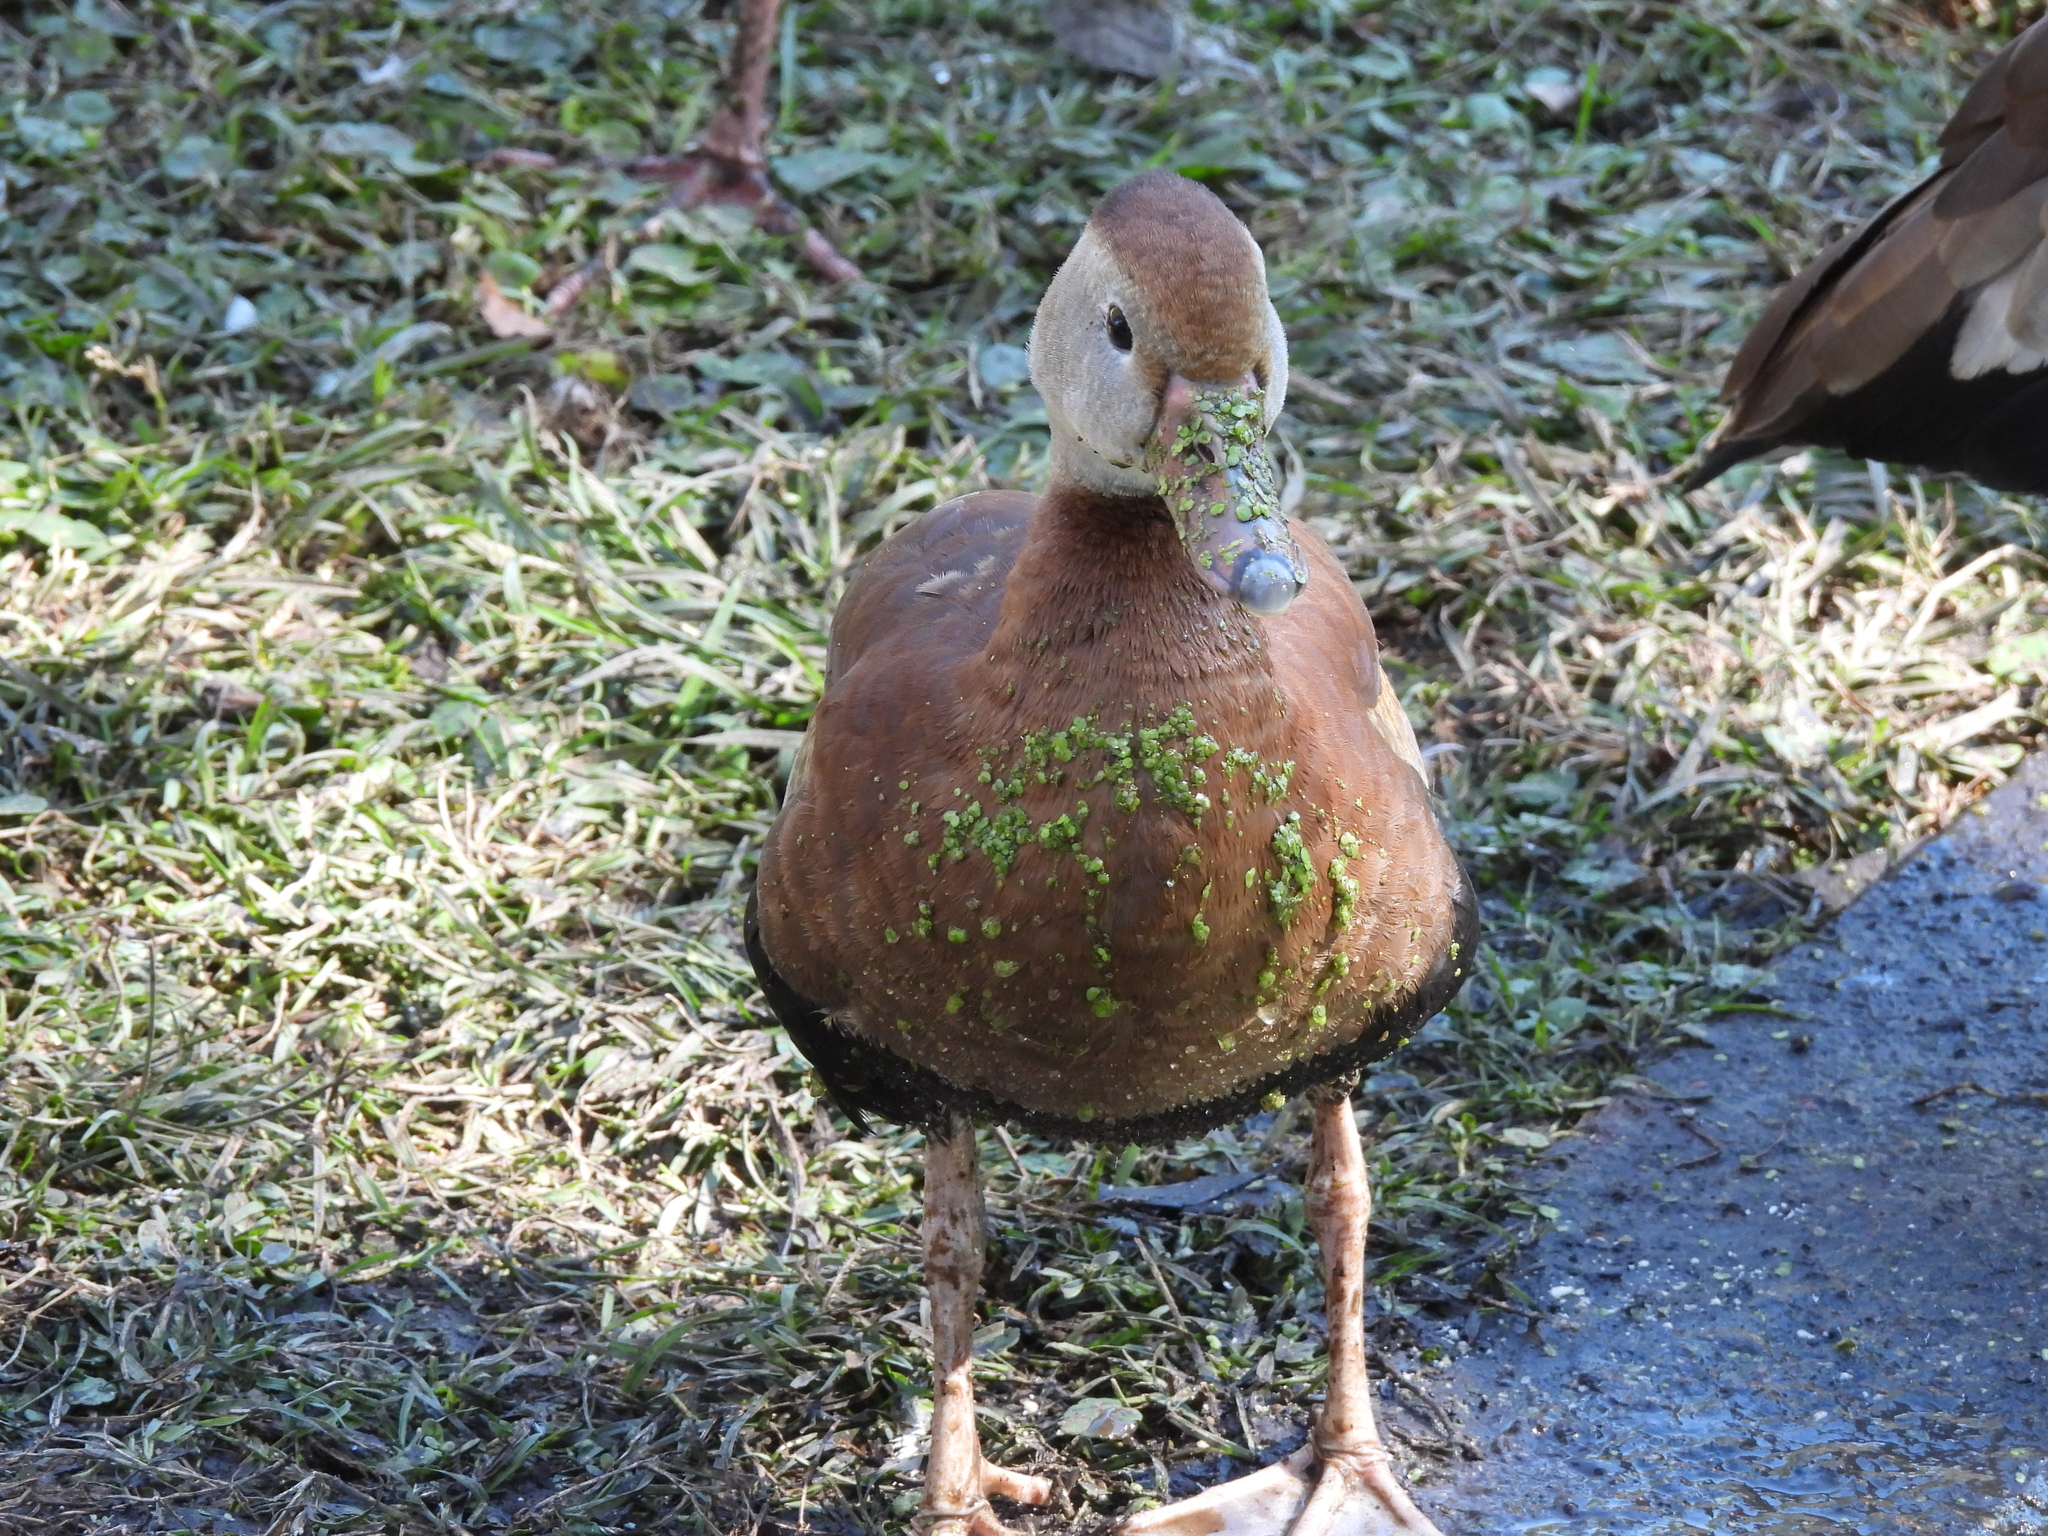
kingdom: Animalia
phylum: Chordata
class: Aves
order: Anseriformes
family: Anatidae
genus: Dendrocygna
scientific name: Dendrocygna autumnalis
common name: Black-bellied whistling duck
